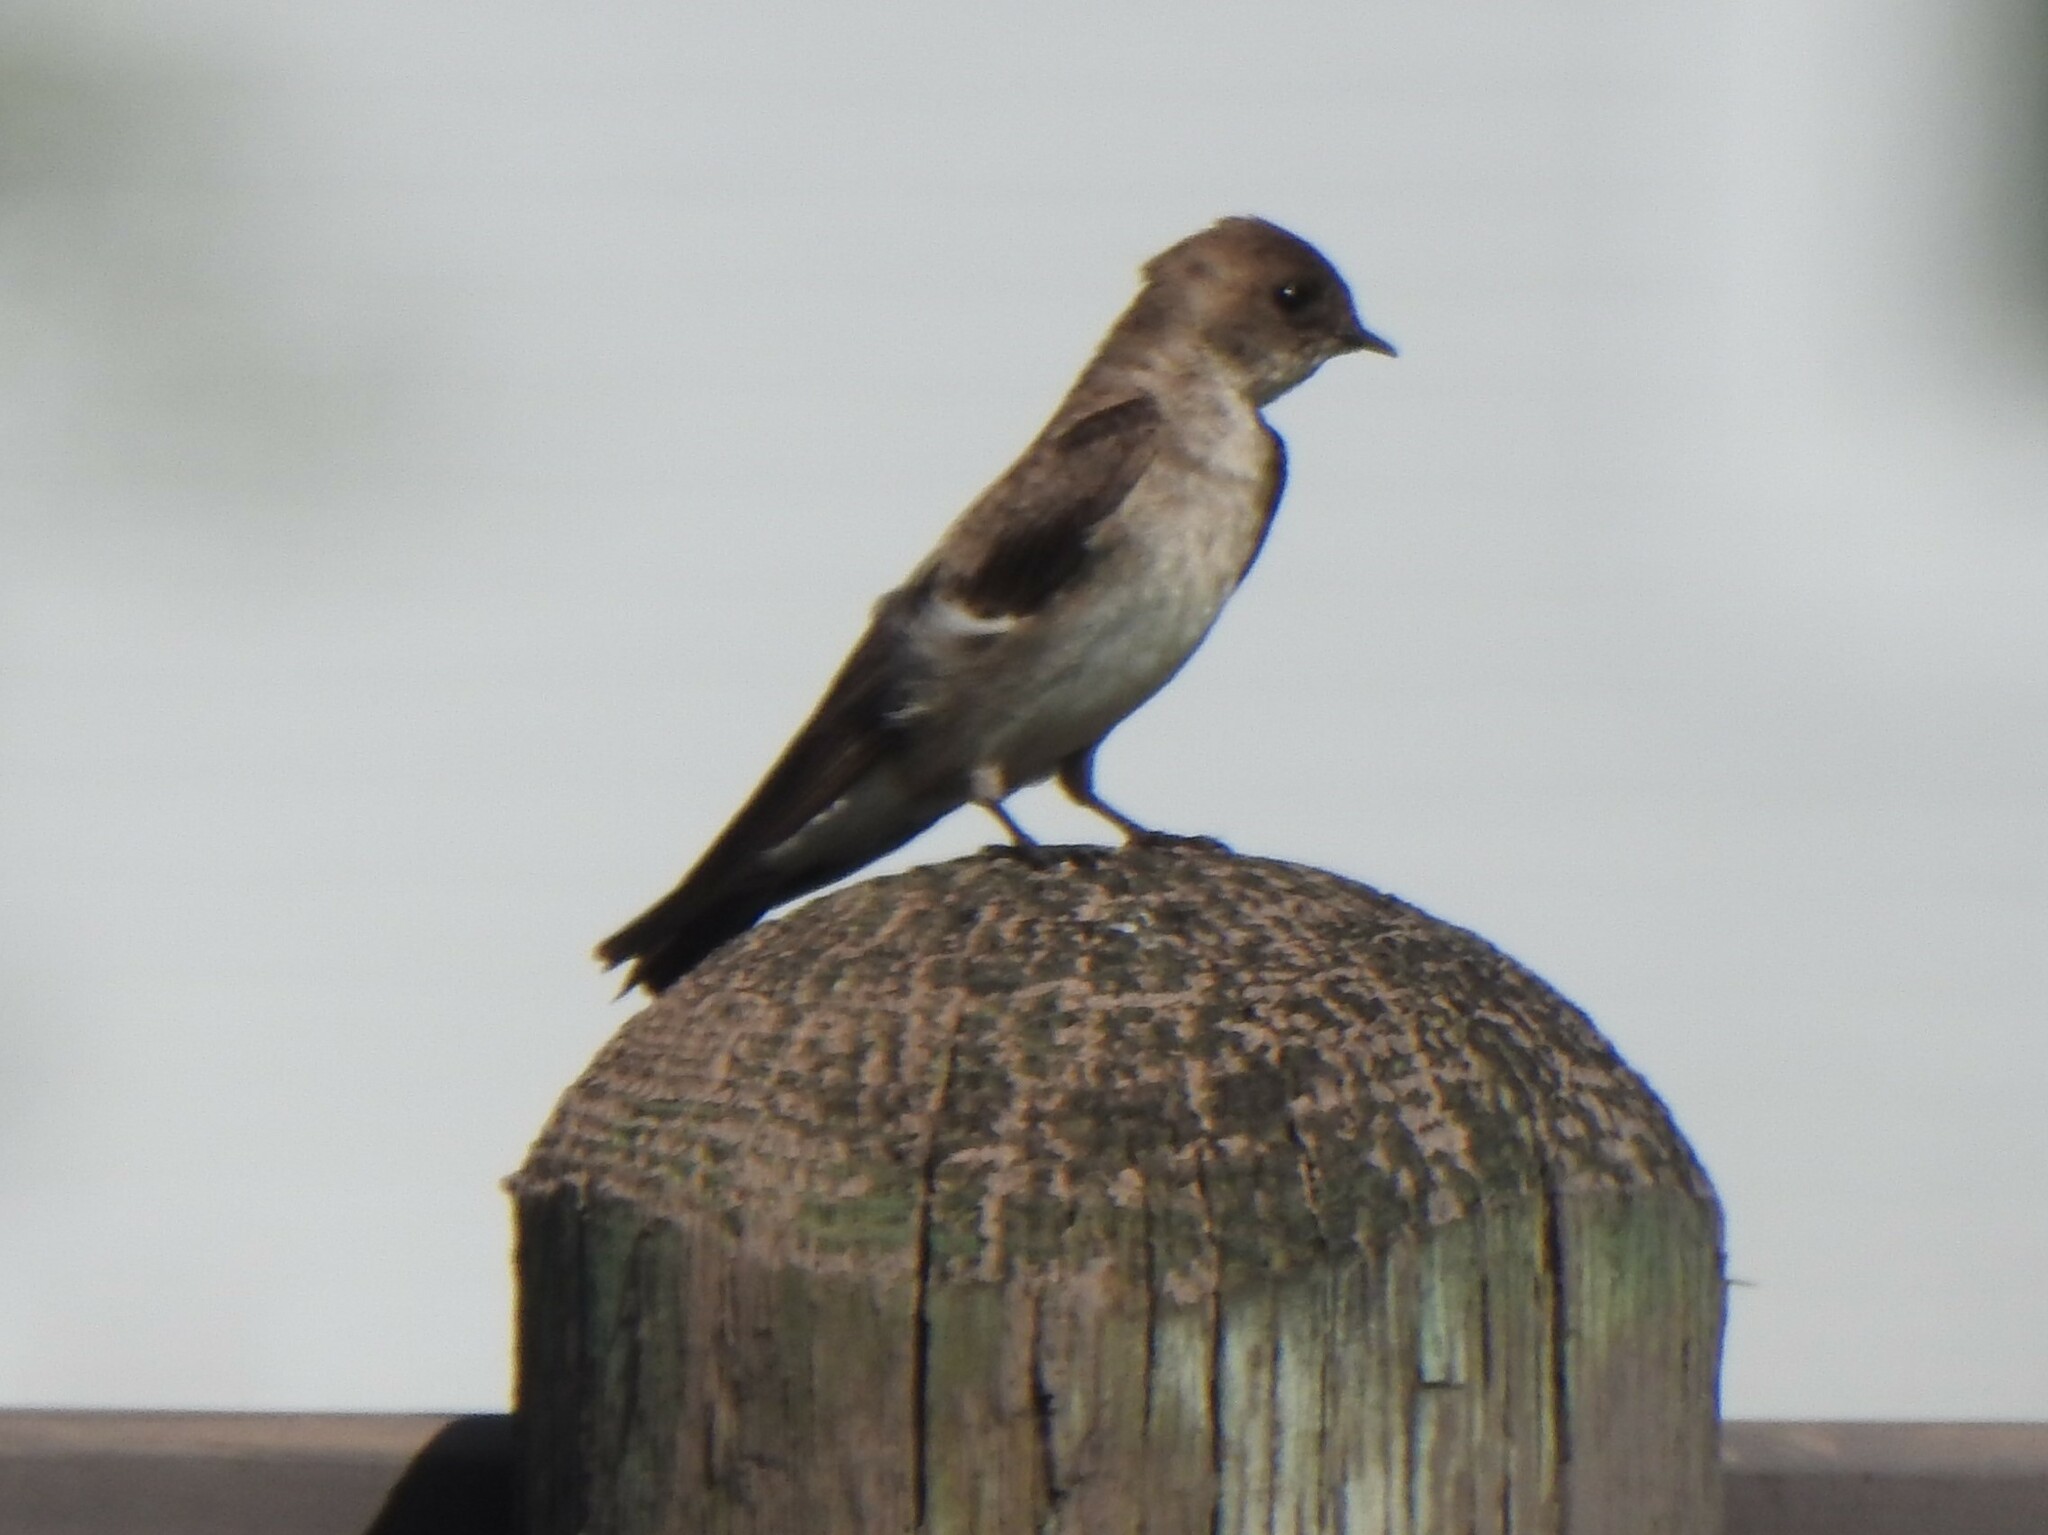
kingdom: Animalia
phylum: Chordata
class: Aves
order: Passeriformes
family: Hirundinidae
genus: Stelgidopteryx
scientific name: Stelgidopteryx serripennis
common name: Northern rough-winged swallow
